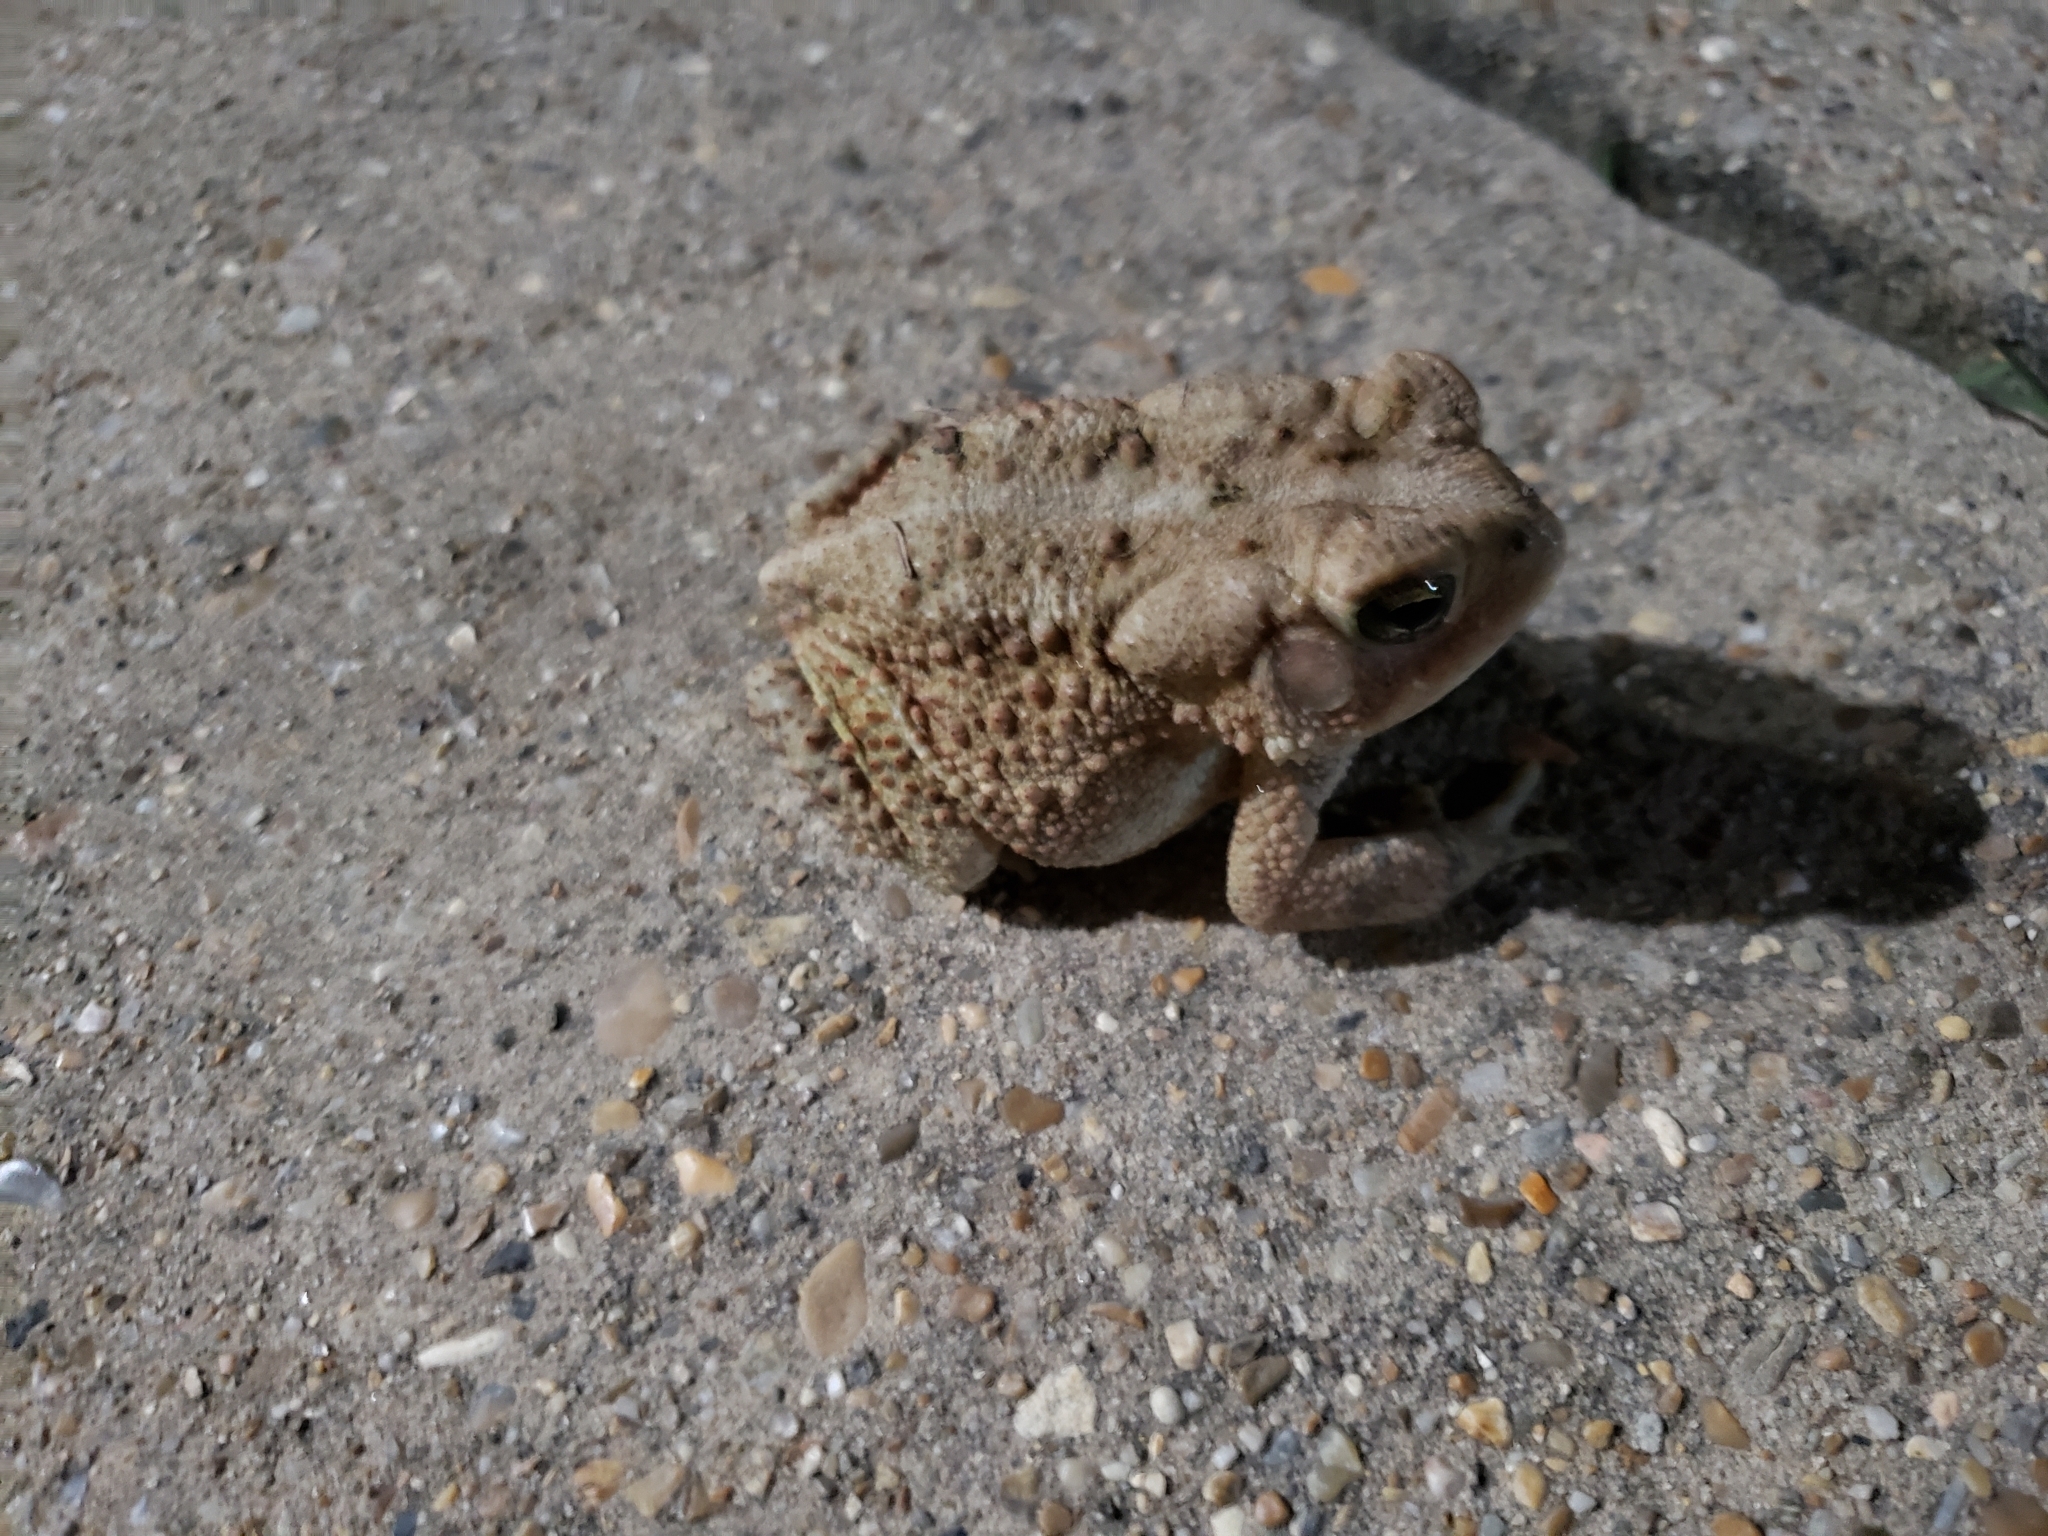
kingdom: Animalia
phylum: Chordata
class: Amphibia
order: Anura
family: Bufonidae
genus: Anaxyrus
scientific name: Anaxyrus fowleri
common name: Fowler's toad
